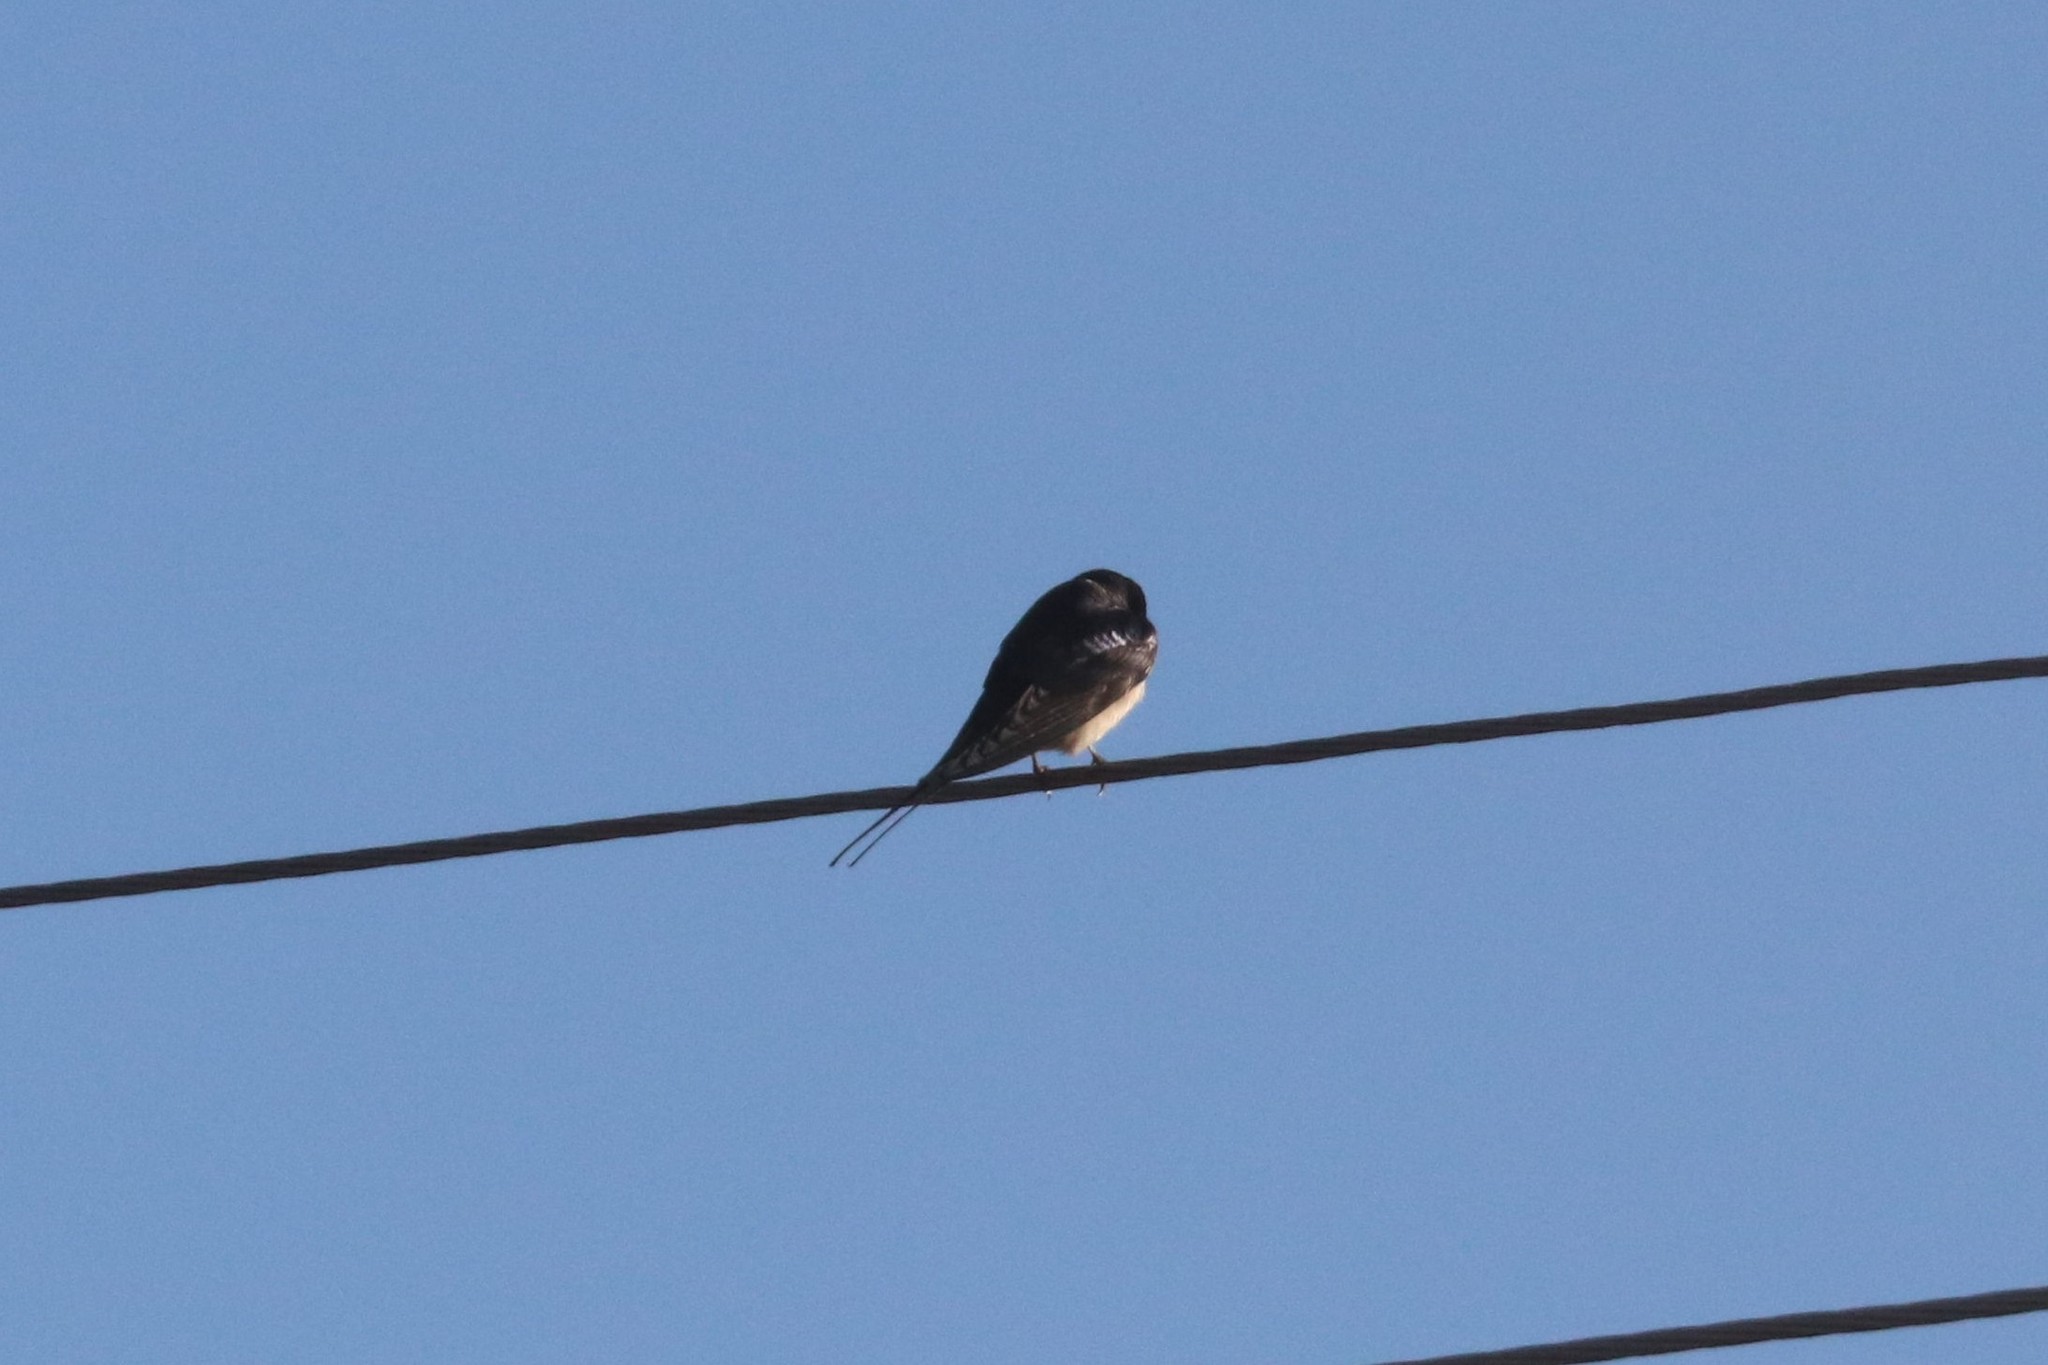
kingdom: Animalia
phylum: Chordata
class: Aves
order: Passeriformes
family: Hirundinidae
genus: Hirundo
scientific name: Hirundo rustica
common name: Barn swallow
